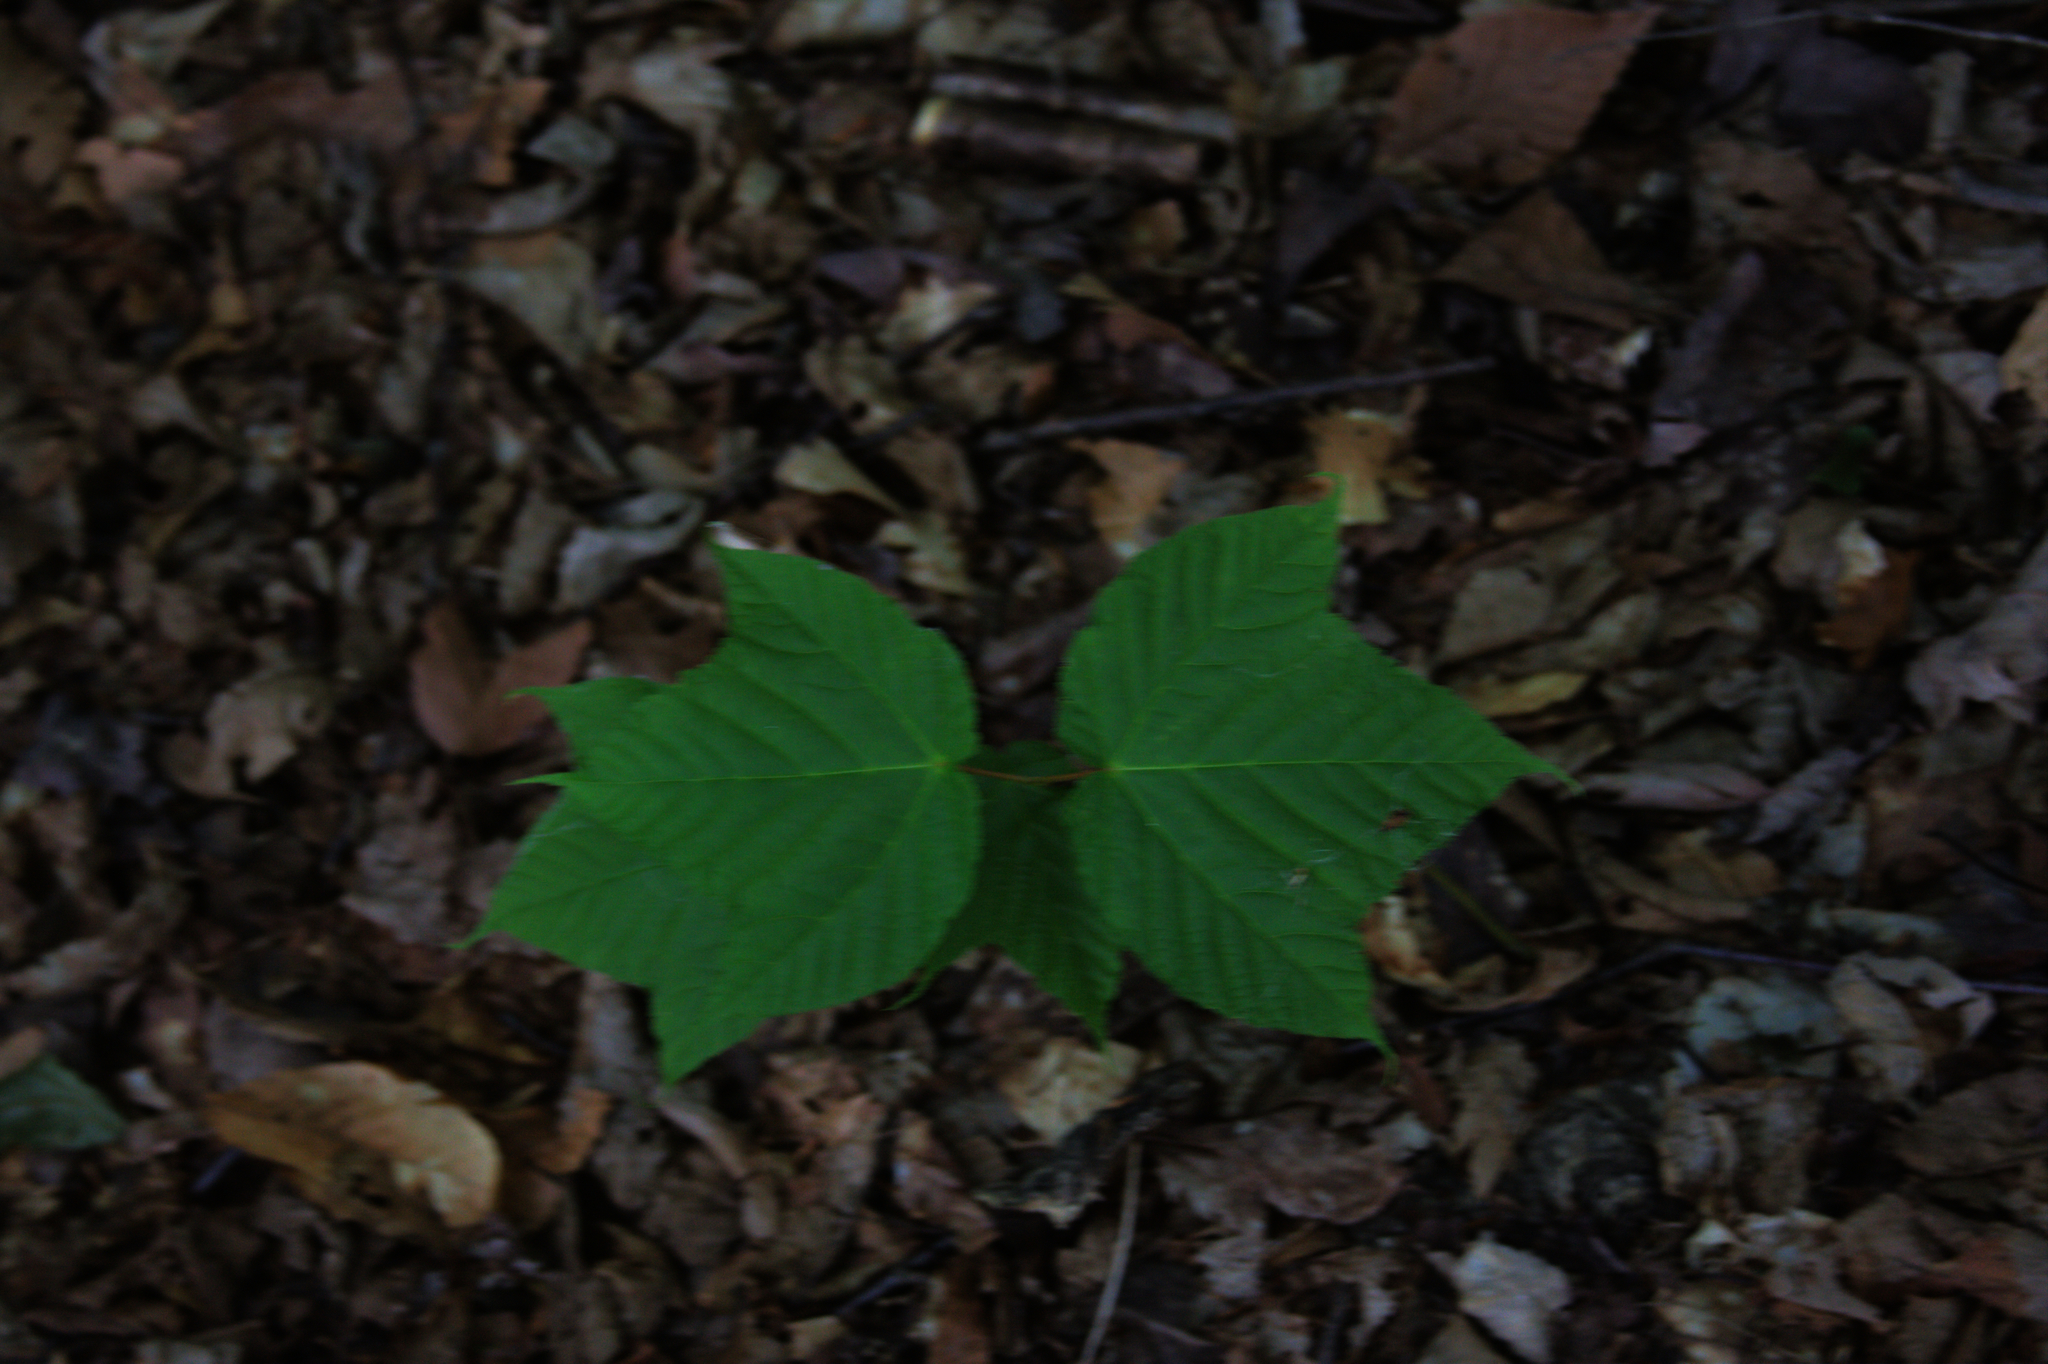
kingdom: Plantae
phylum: Tracheophyta
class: Magnoliopsida
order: Sapindales
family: Sapindaceae
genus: Acer
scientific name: Acer pensylvanicum
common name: Moosewood
